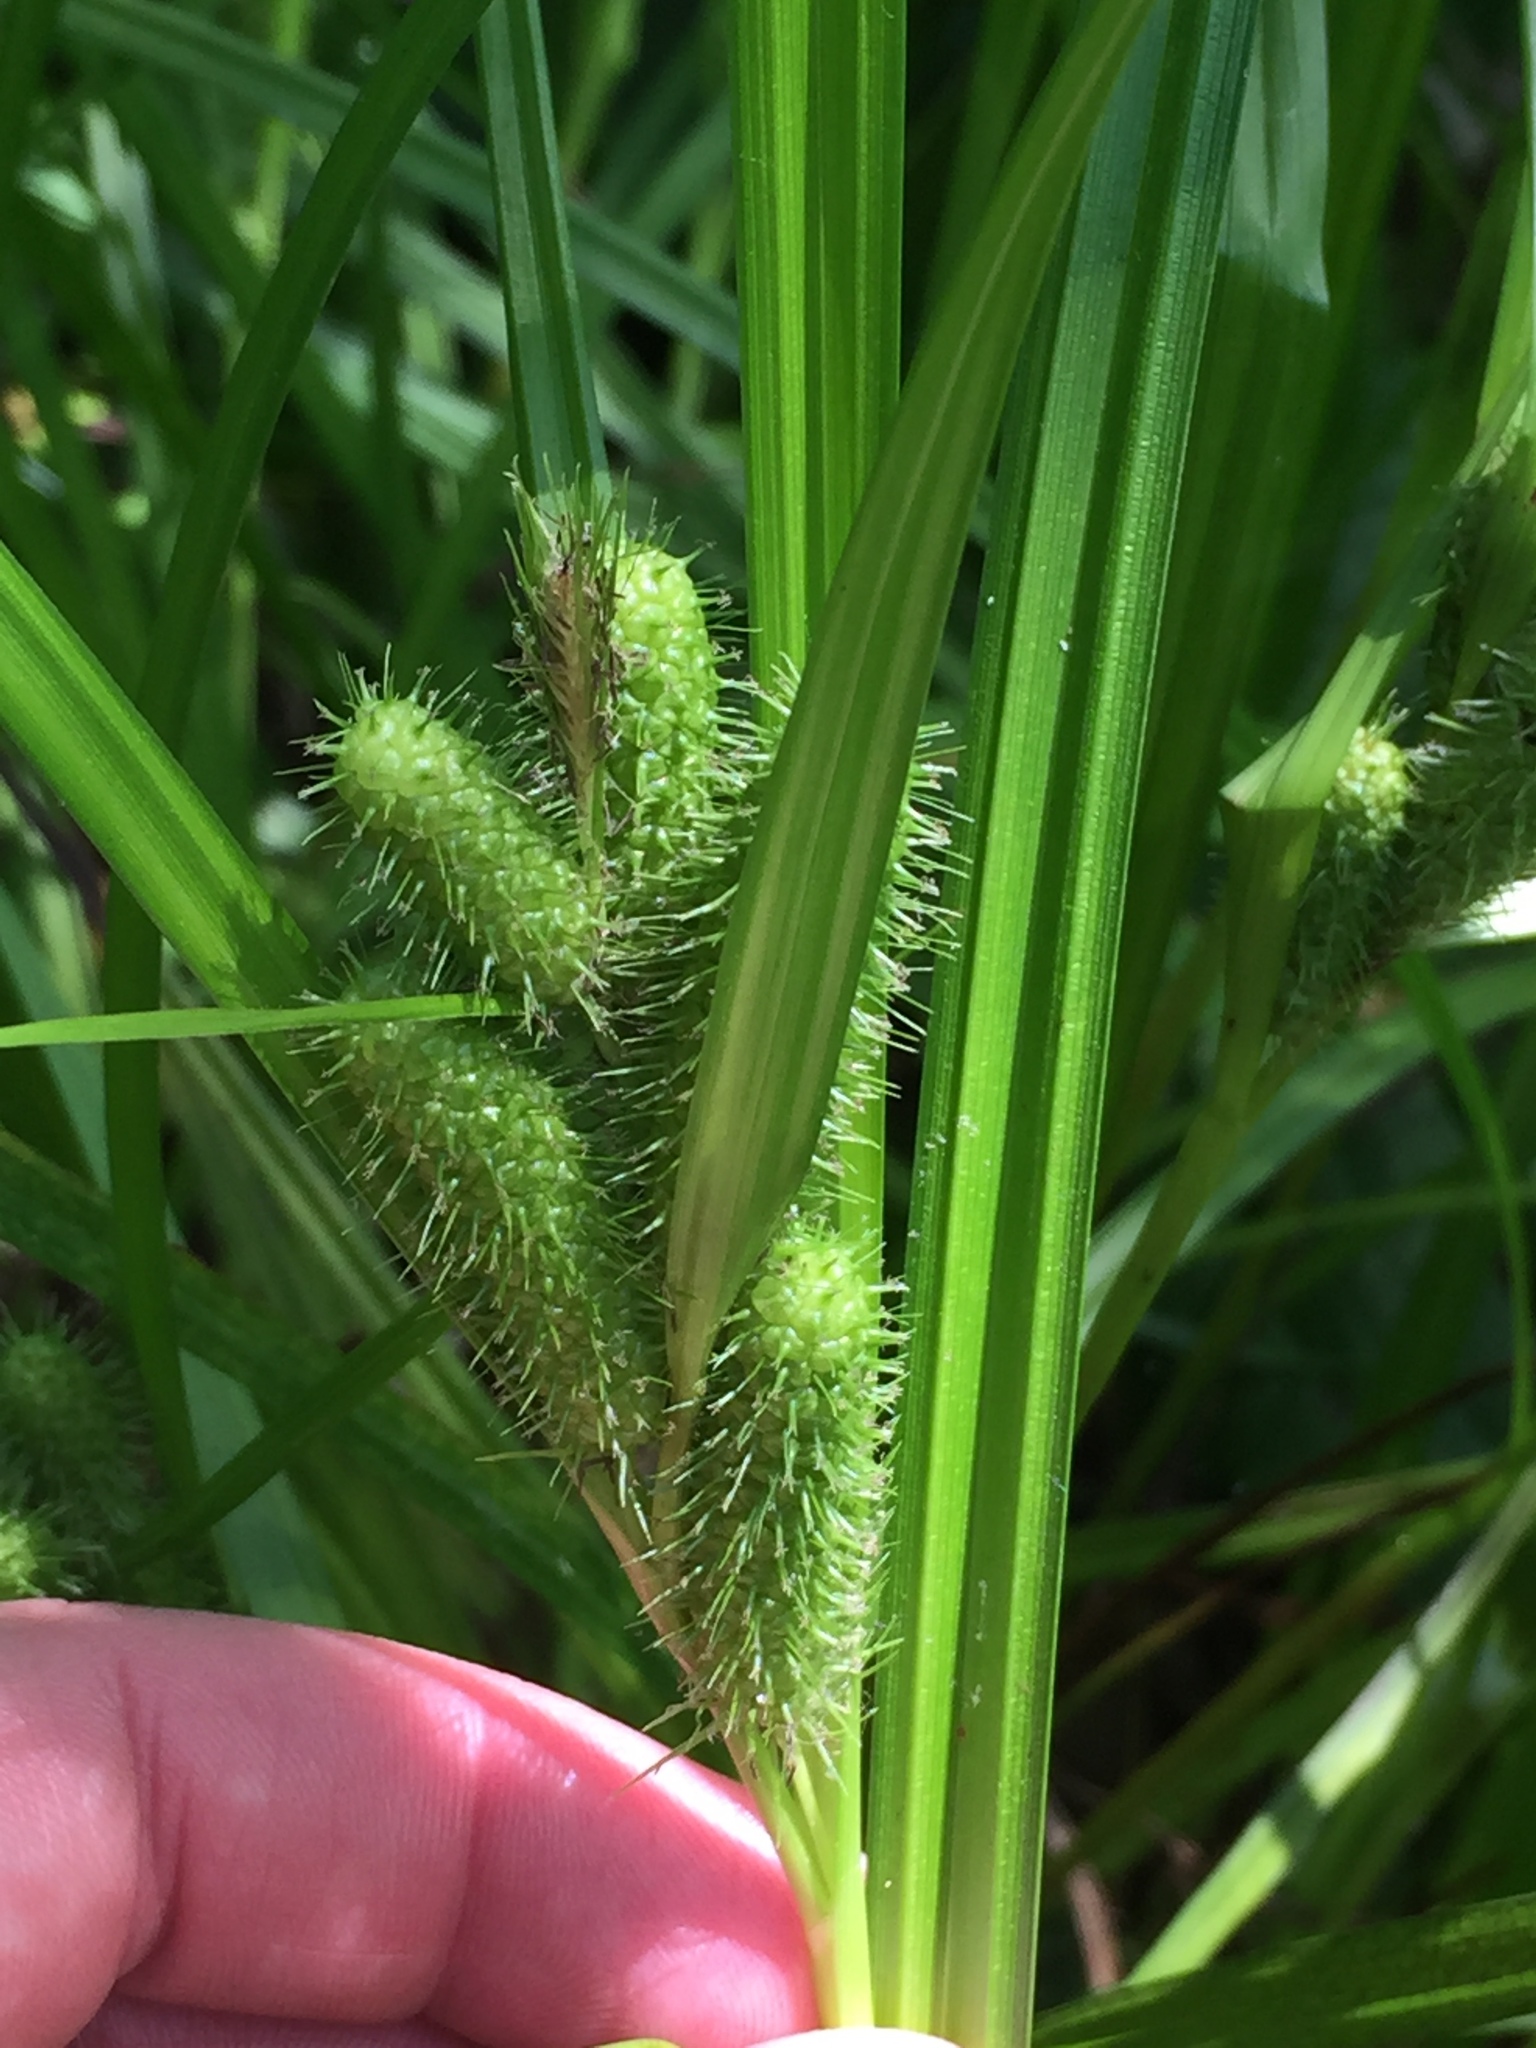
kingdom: Plantae
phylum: Tracheophyta
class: Liliopsida
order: Poales
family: Cyperaceae
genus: Carex
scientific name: Carex frankii
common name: Frank's sedge
